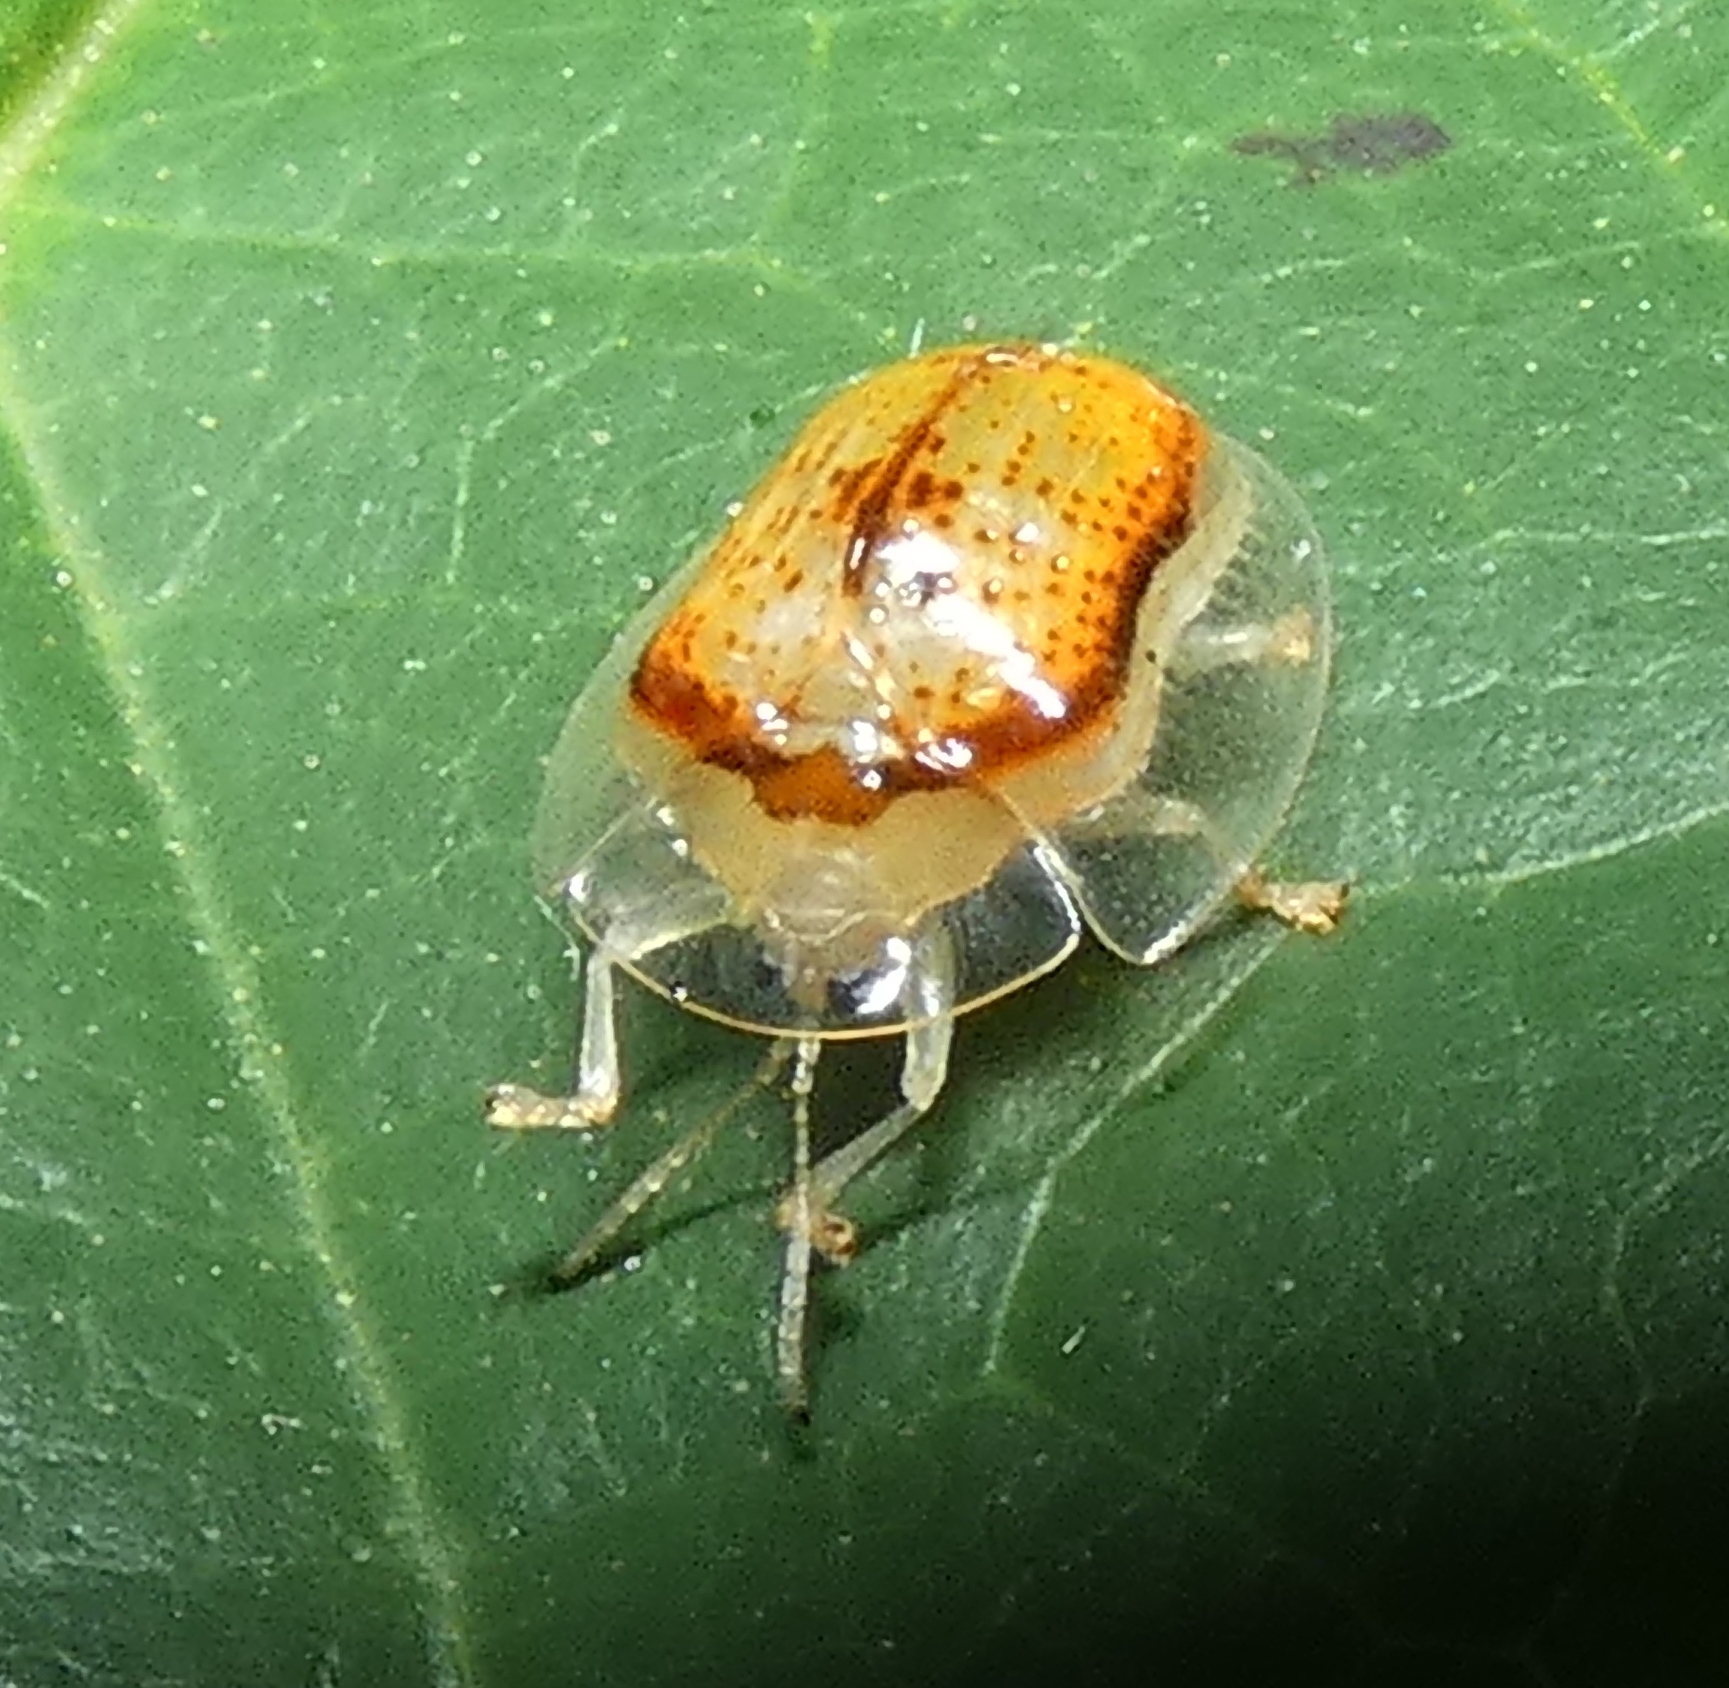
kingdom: Animalia
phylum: Arthropoda
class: Insecta
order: Coleoptera
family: Chrysomelidae
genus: Microctenochira
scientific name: Microctenochira quadrata
